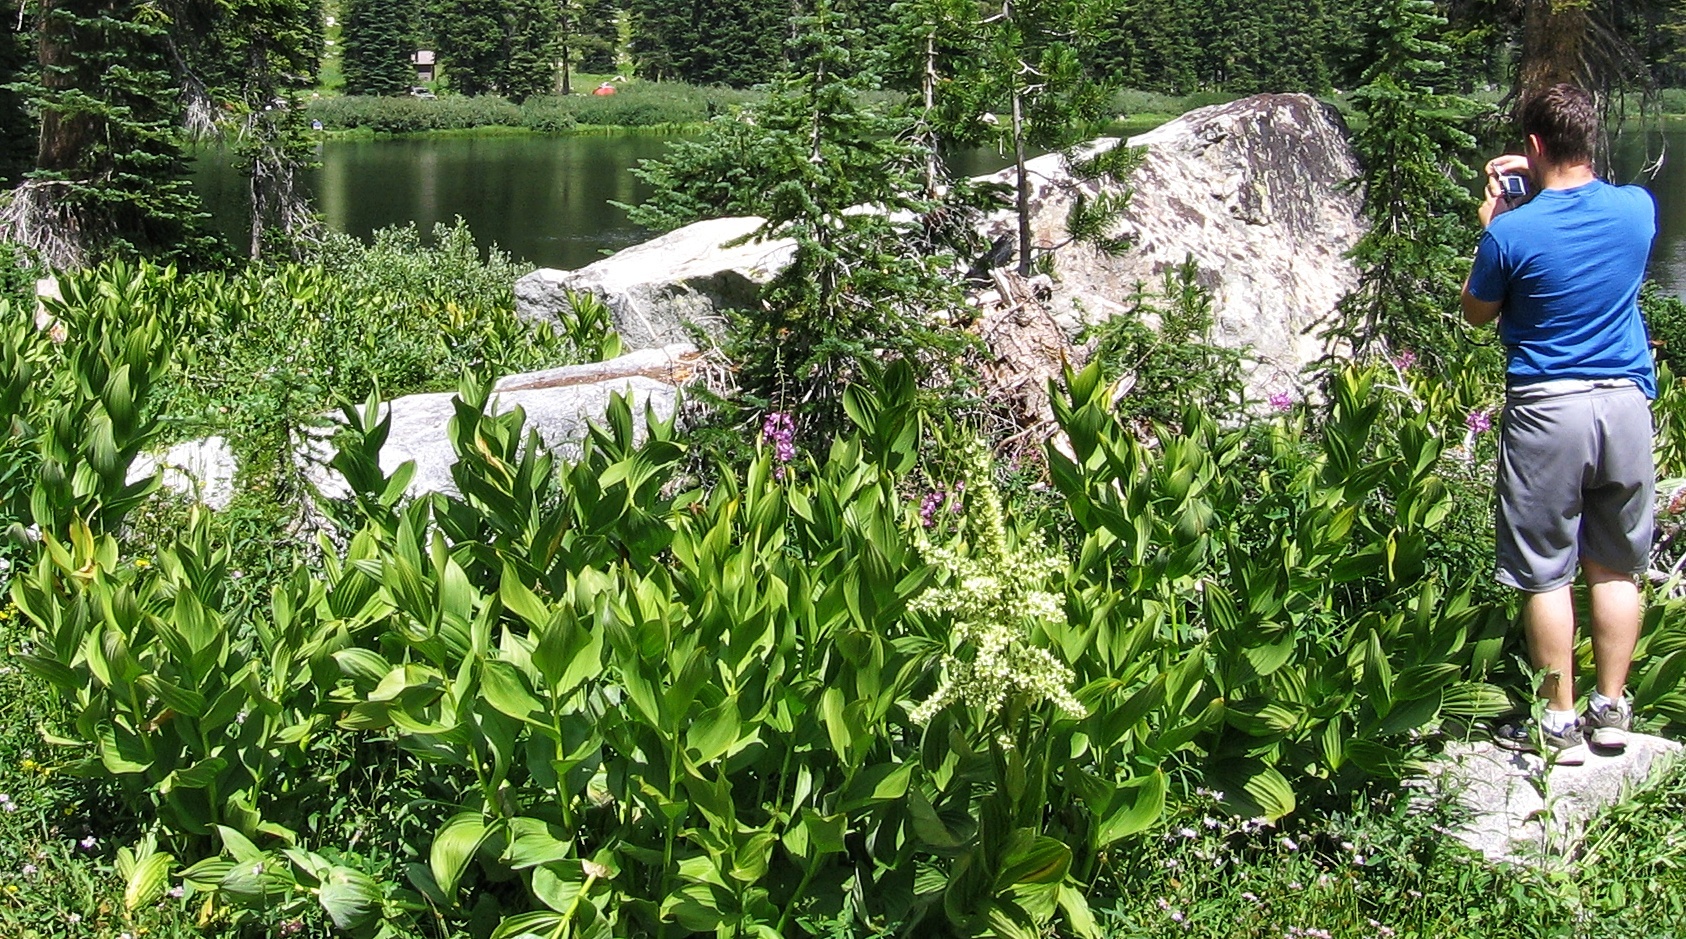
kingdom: Plantae
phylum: Tracheophyta
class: Liliopsida
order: Liliales
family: Melanthiaceae
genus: Veratrum
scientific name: Veratrum californicum
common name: California veratrum
